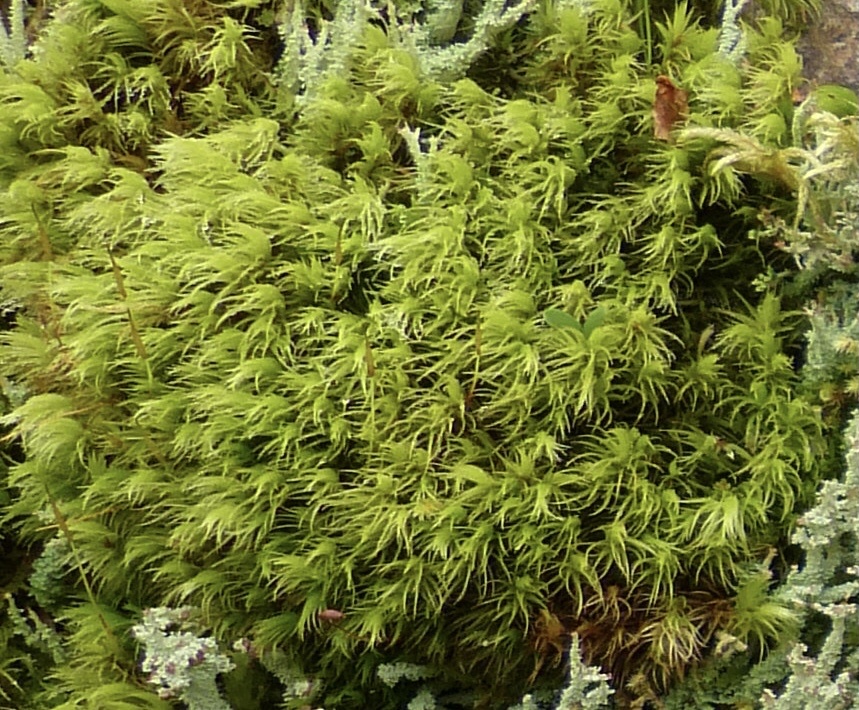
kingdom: Plantae
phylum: Bryophyta
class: Bryopsida
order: Dicranales
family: Dicranaceae
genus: Dicranum
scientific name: Dicranum scoparium
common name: Broom fork-moss
